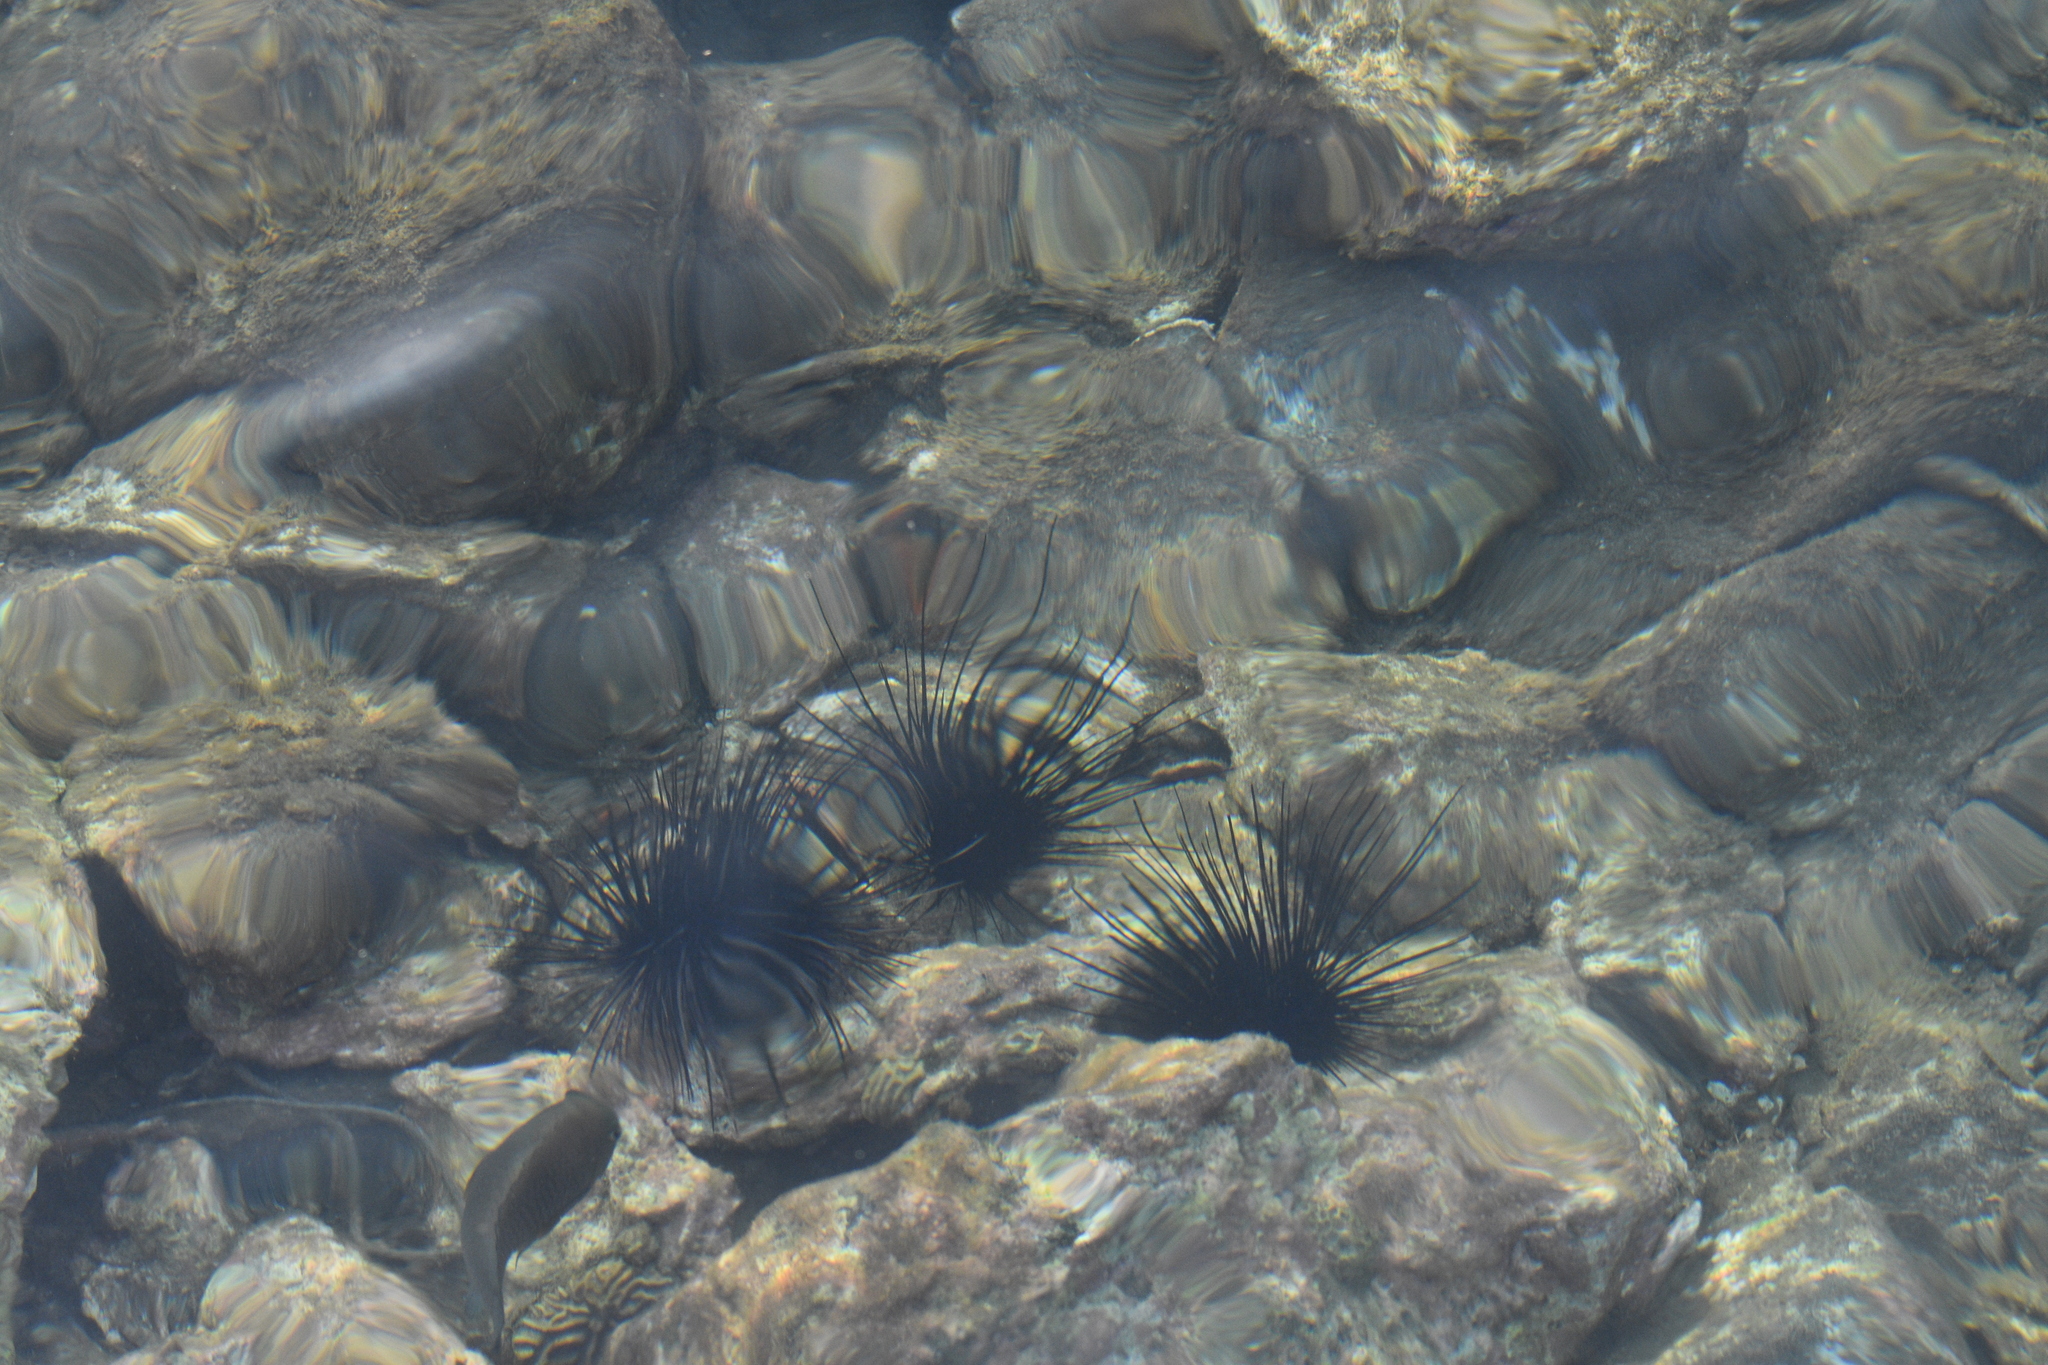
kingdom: Animalia
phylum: Echinodermata
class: Echinoidea
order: Diadematoida
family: Diadematidae
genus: Diadema
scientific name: Diadema antillarum
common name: Spiny urchin
